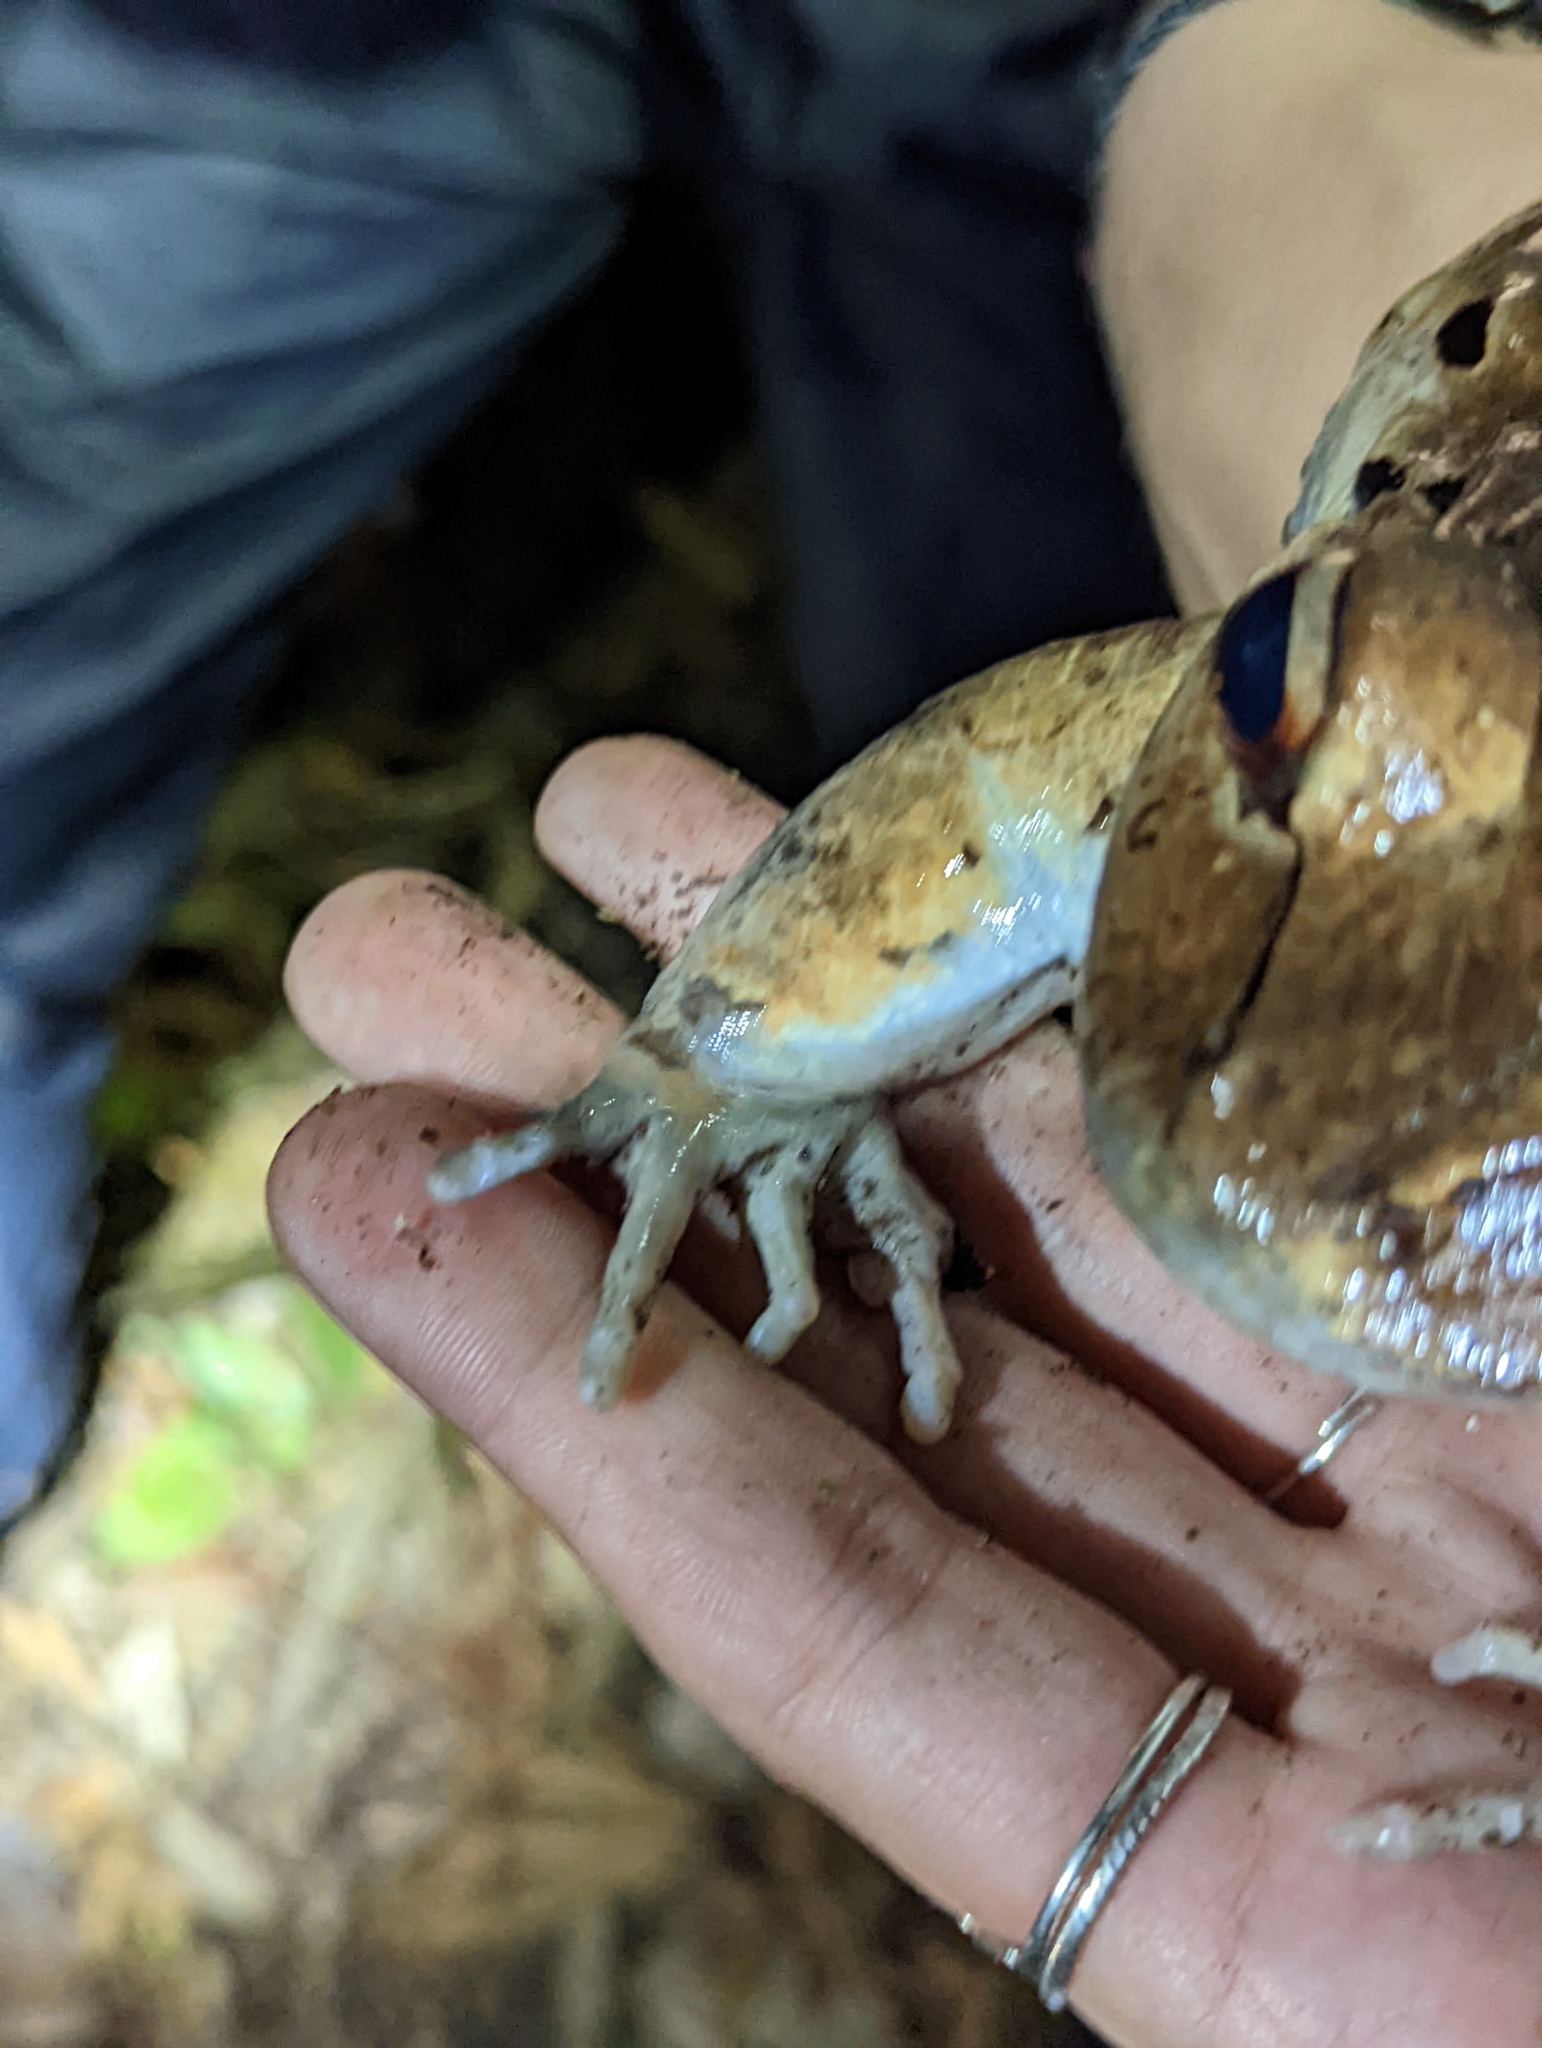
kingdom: Animalia
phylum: Chordata
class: Amphibia
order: Anura
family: Leptodactylidae
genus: Leptodactylus
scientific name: Leptodactylus savagei
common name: Savage's thin-toed frog
